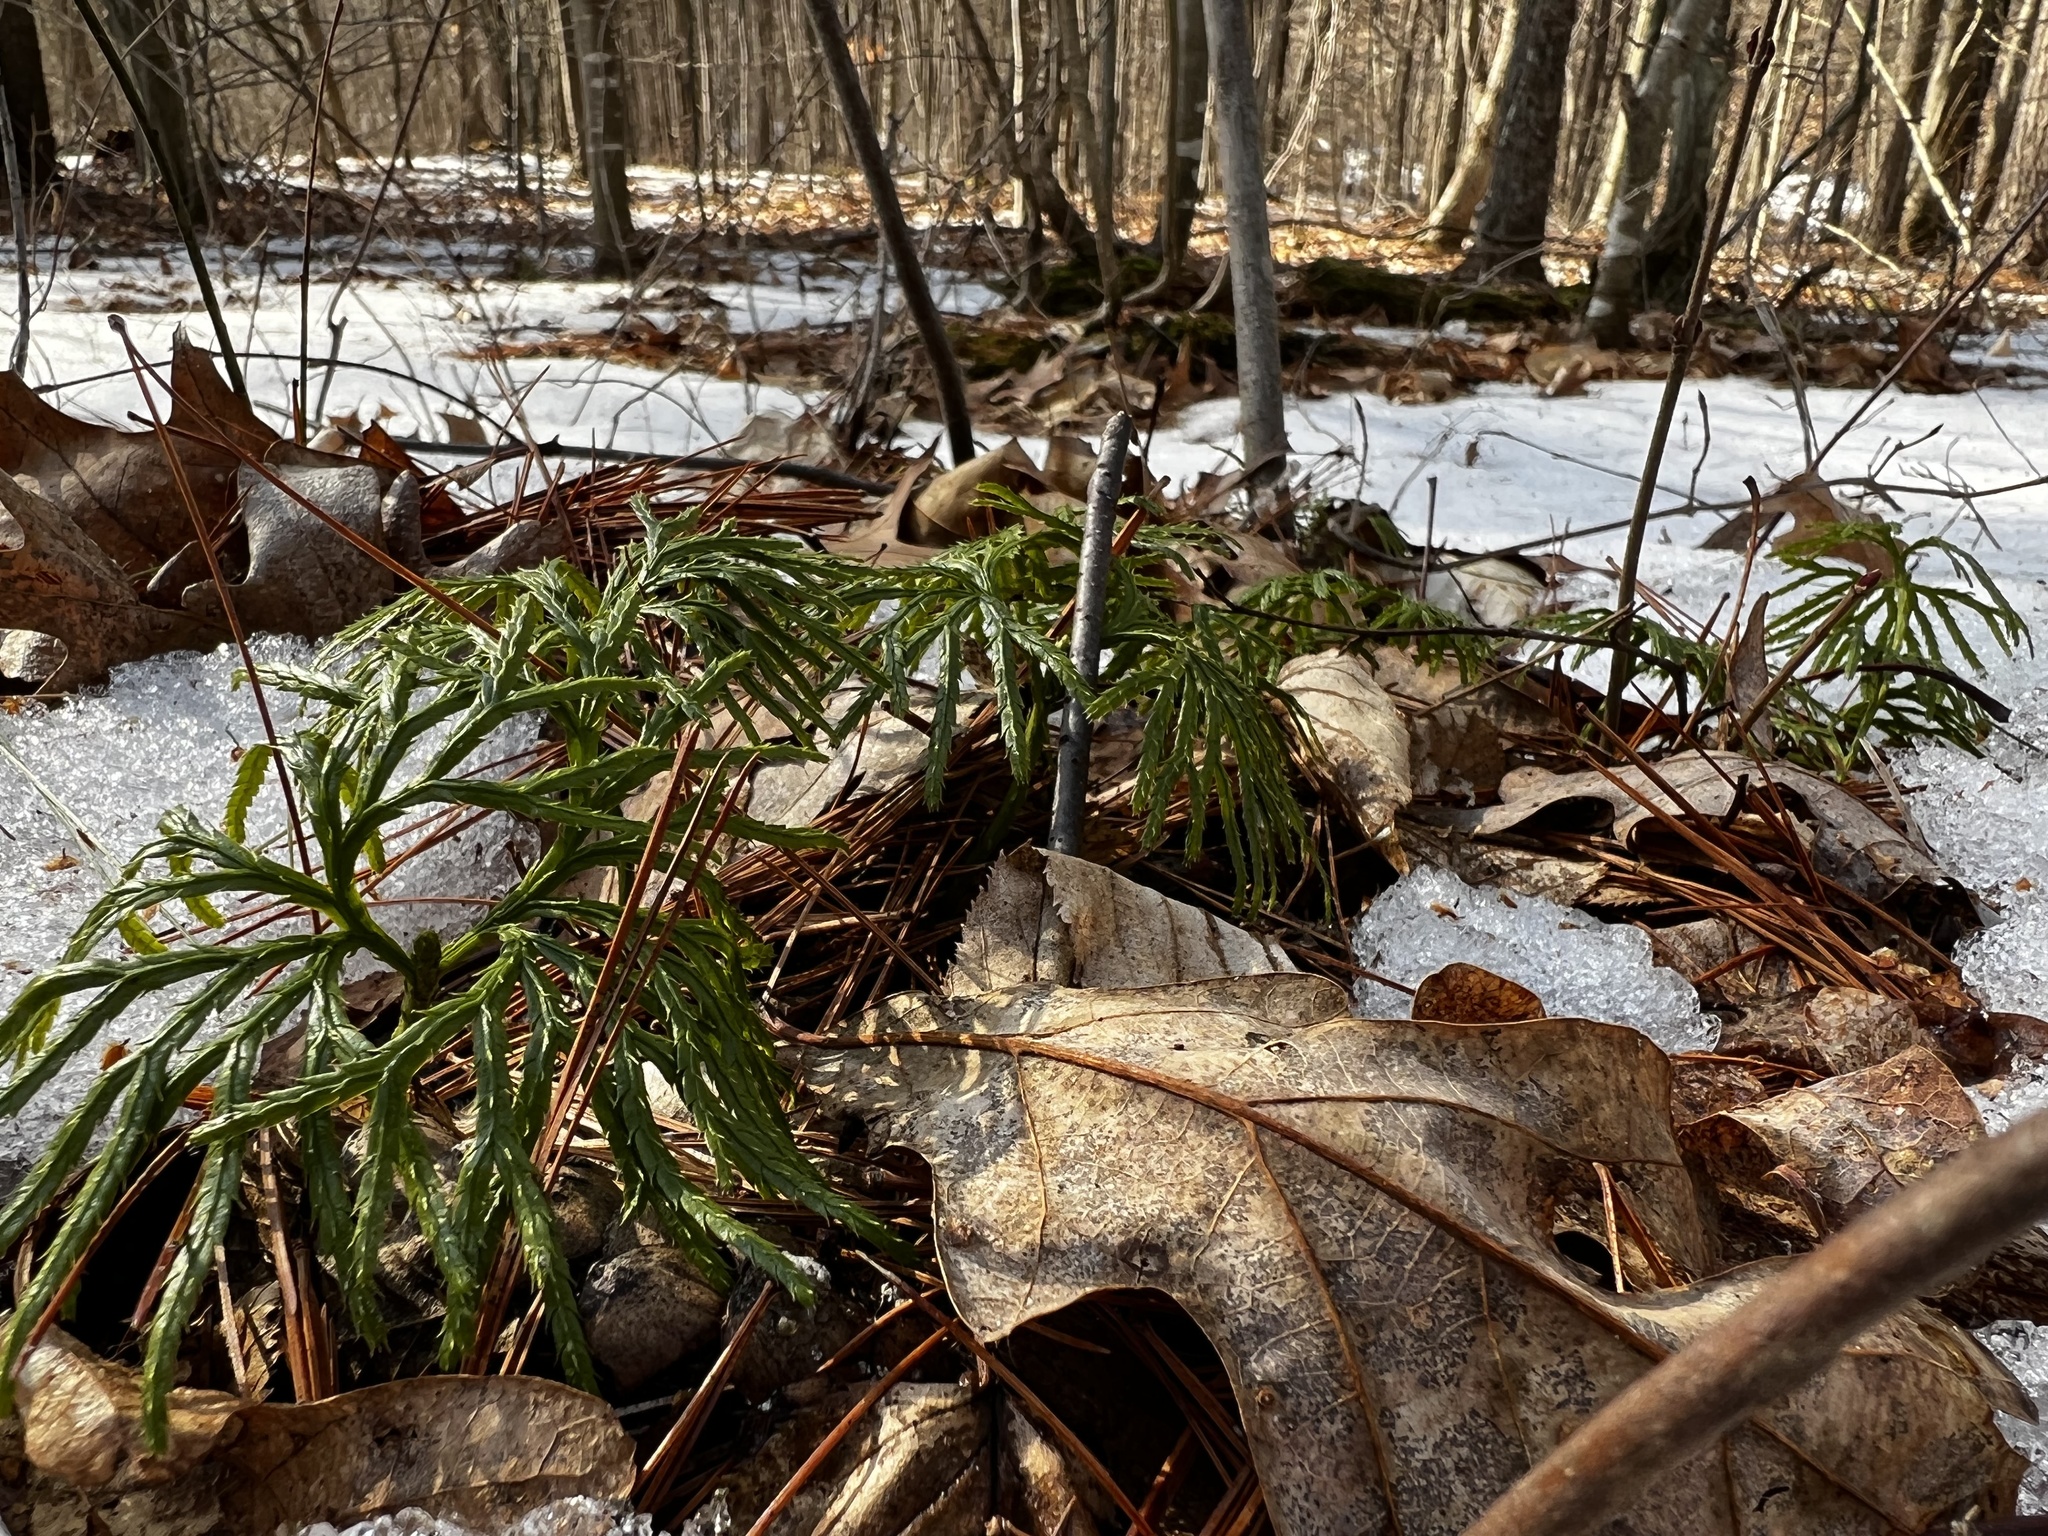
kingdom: Plantae
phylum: Tracheophyta
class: Lycopodiopsida
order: Lycopodiales
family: Lycopodiaceae
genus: Diphasiastrum
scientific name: Diphasiastrum digitatum
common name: Southern running-pine
